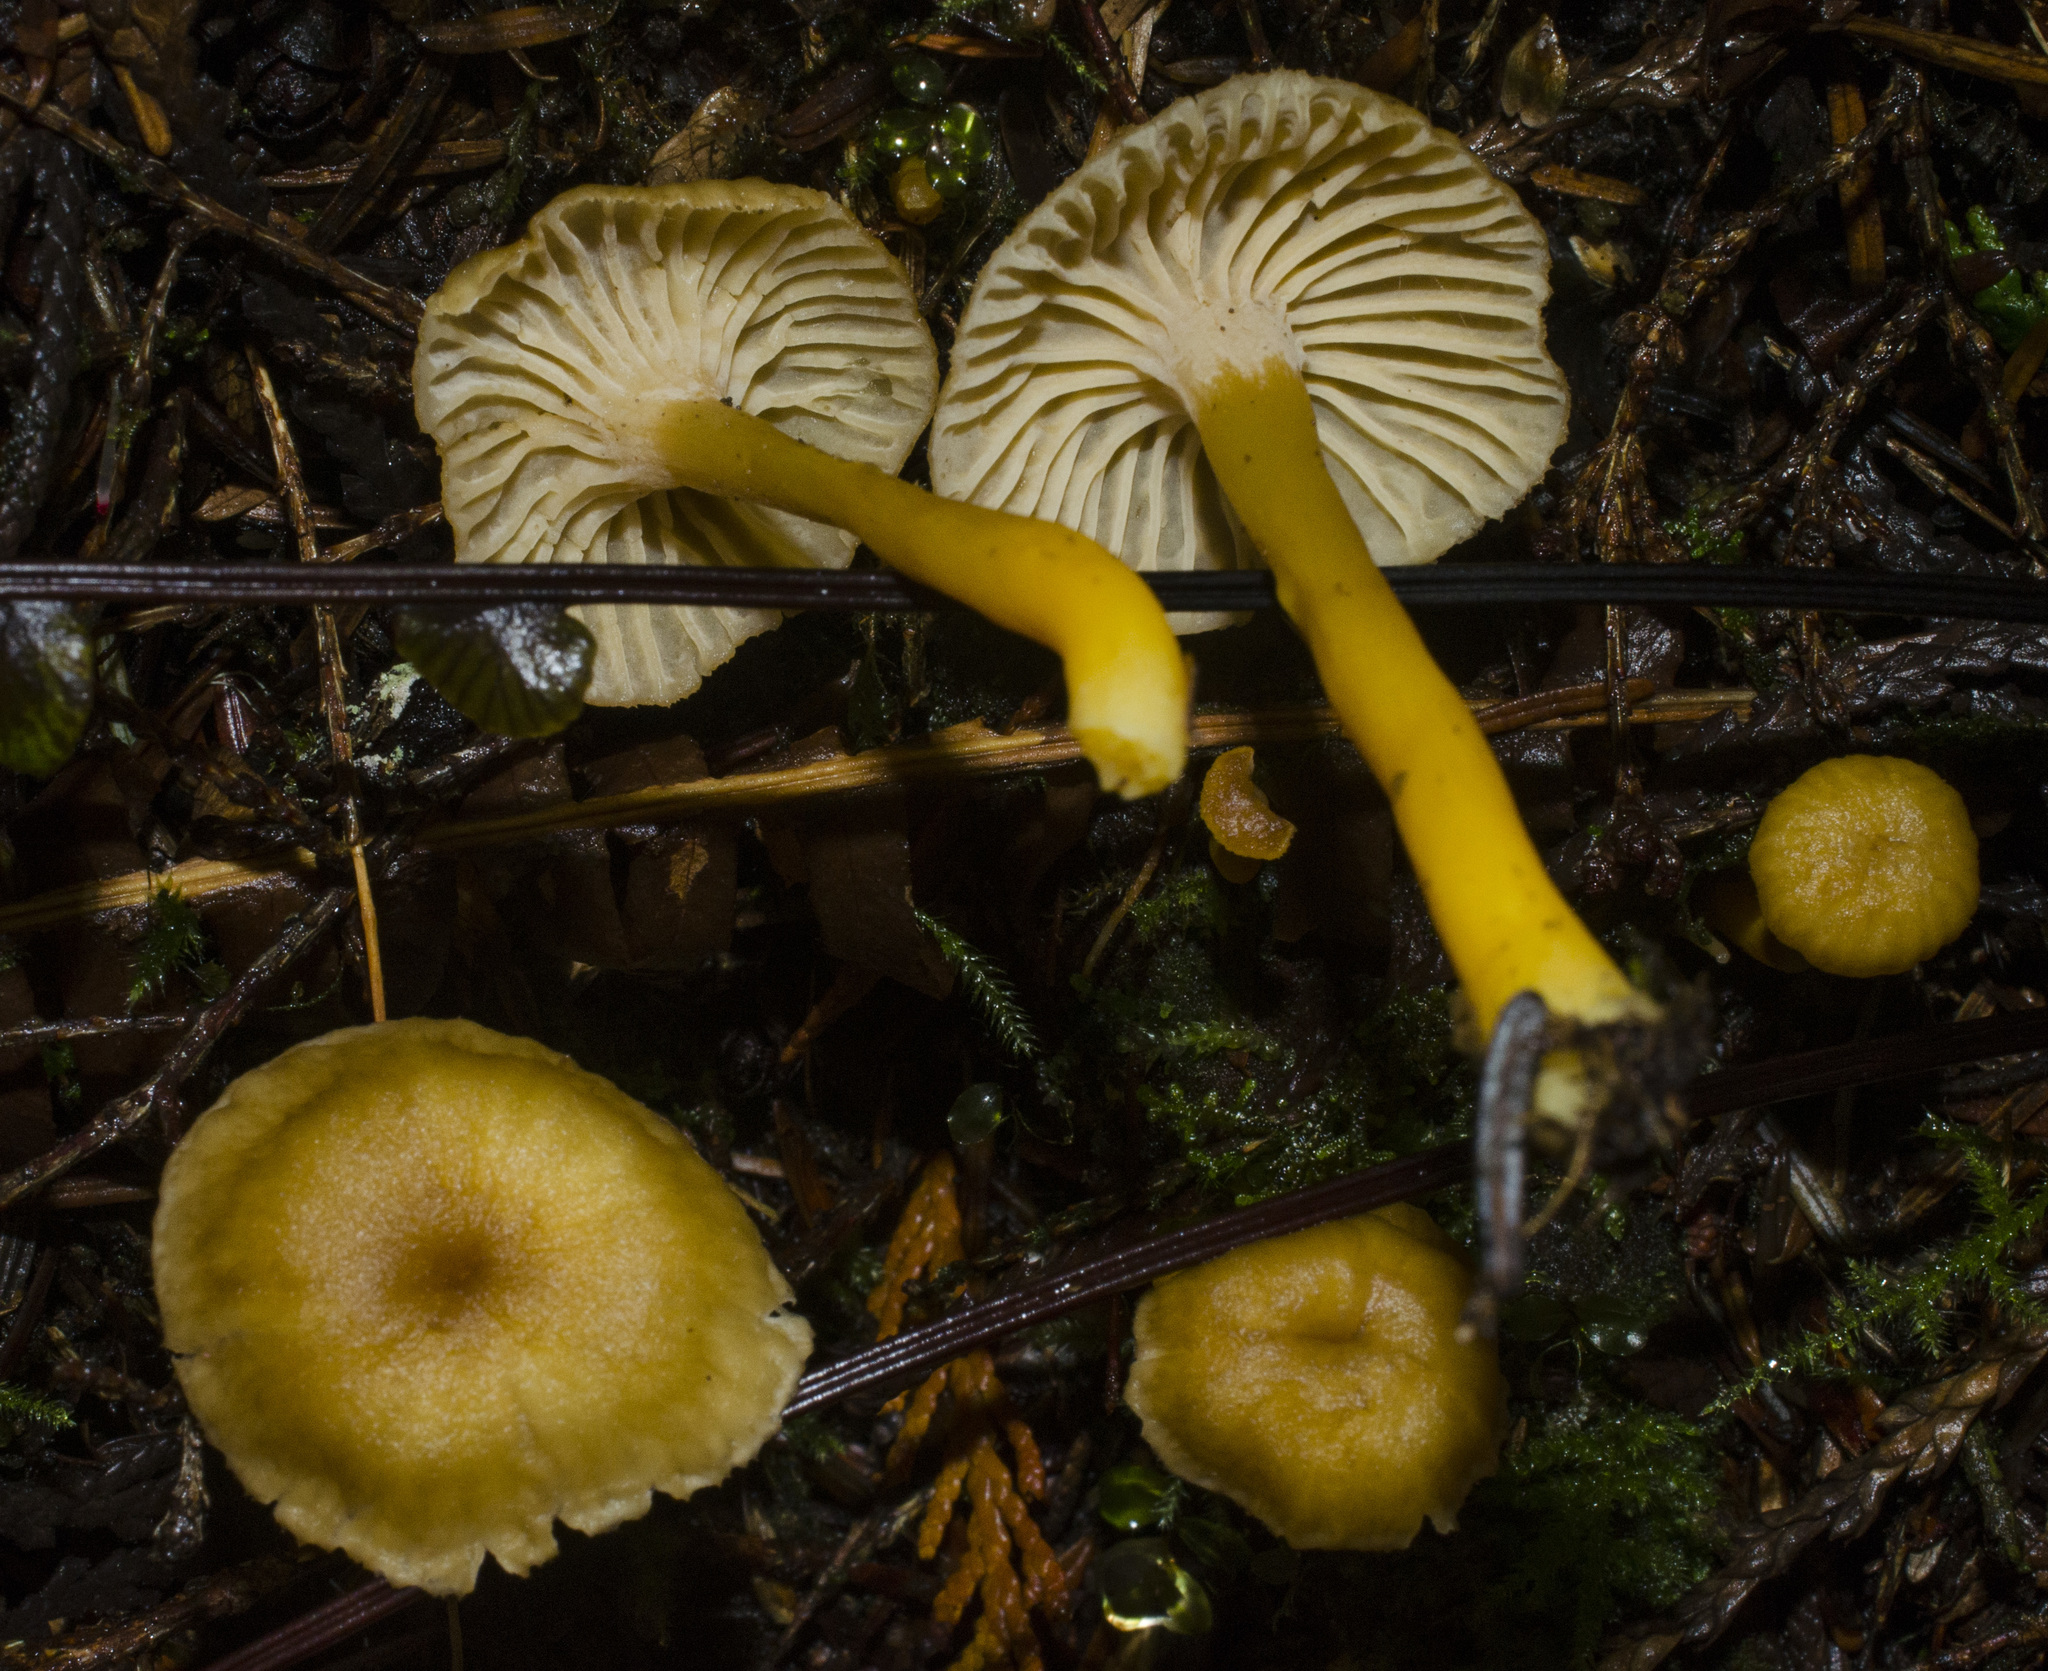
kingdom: Fungi
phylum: Basidiomycota
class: Agaricomycetes
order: Cantharellales
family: Hydnaceae
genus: Craterellus
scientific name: Craterellus tubaeformis
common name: Yellowfoot
